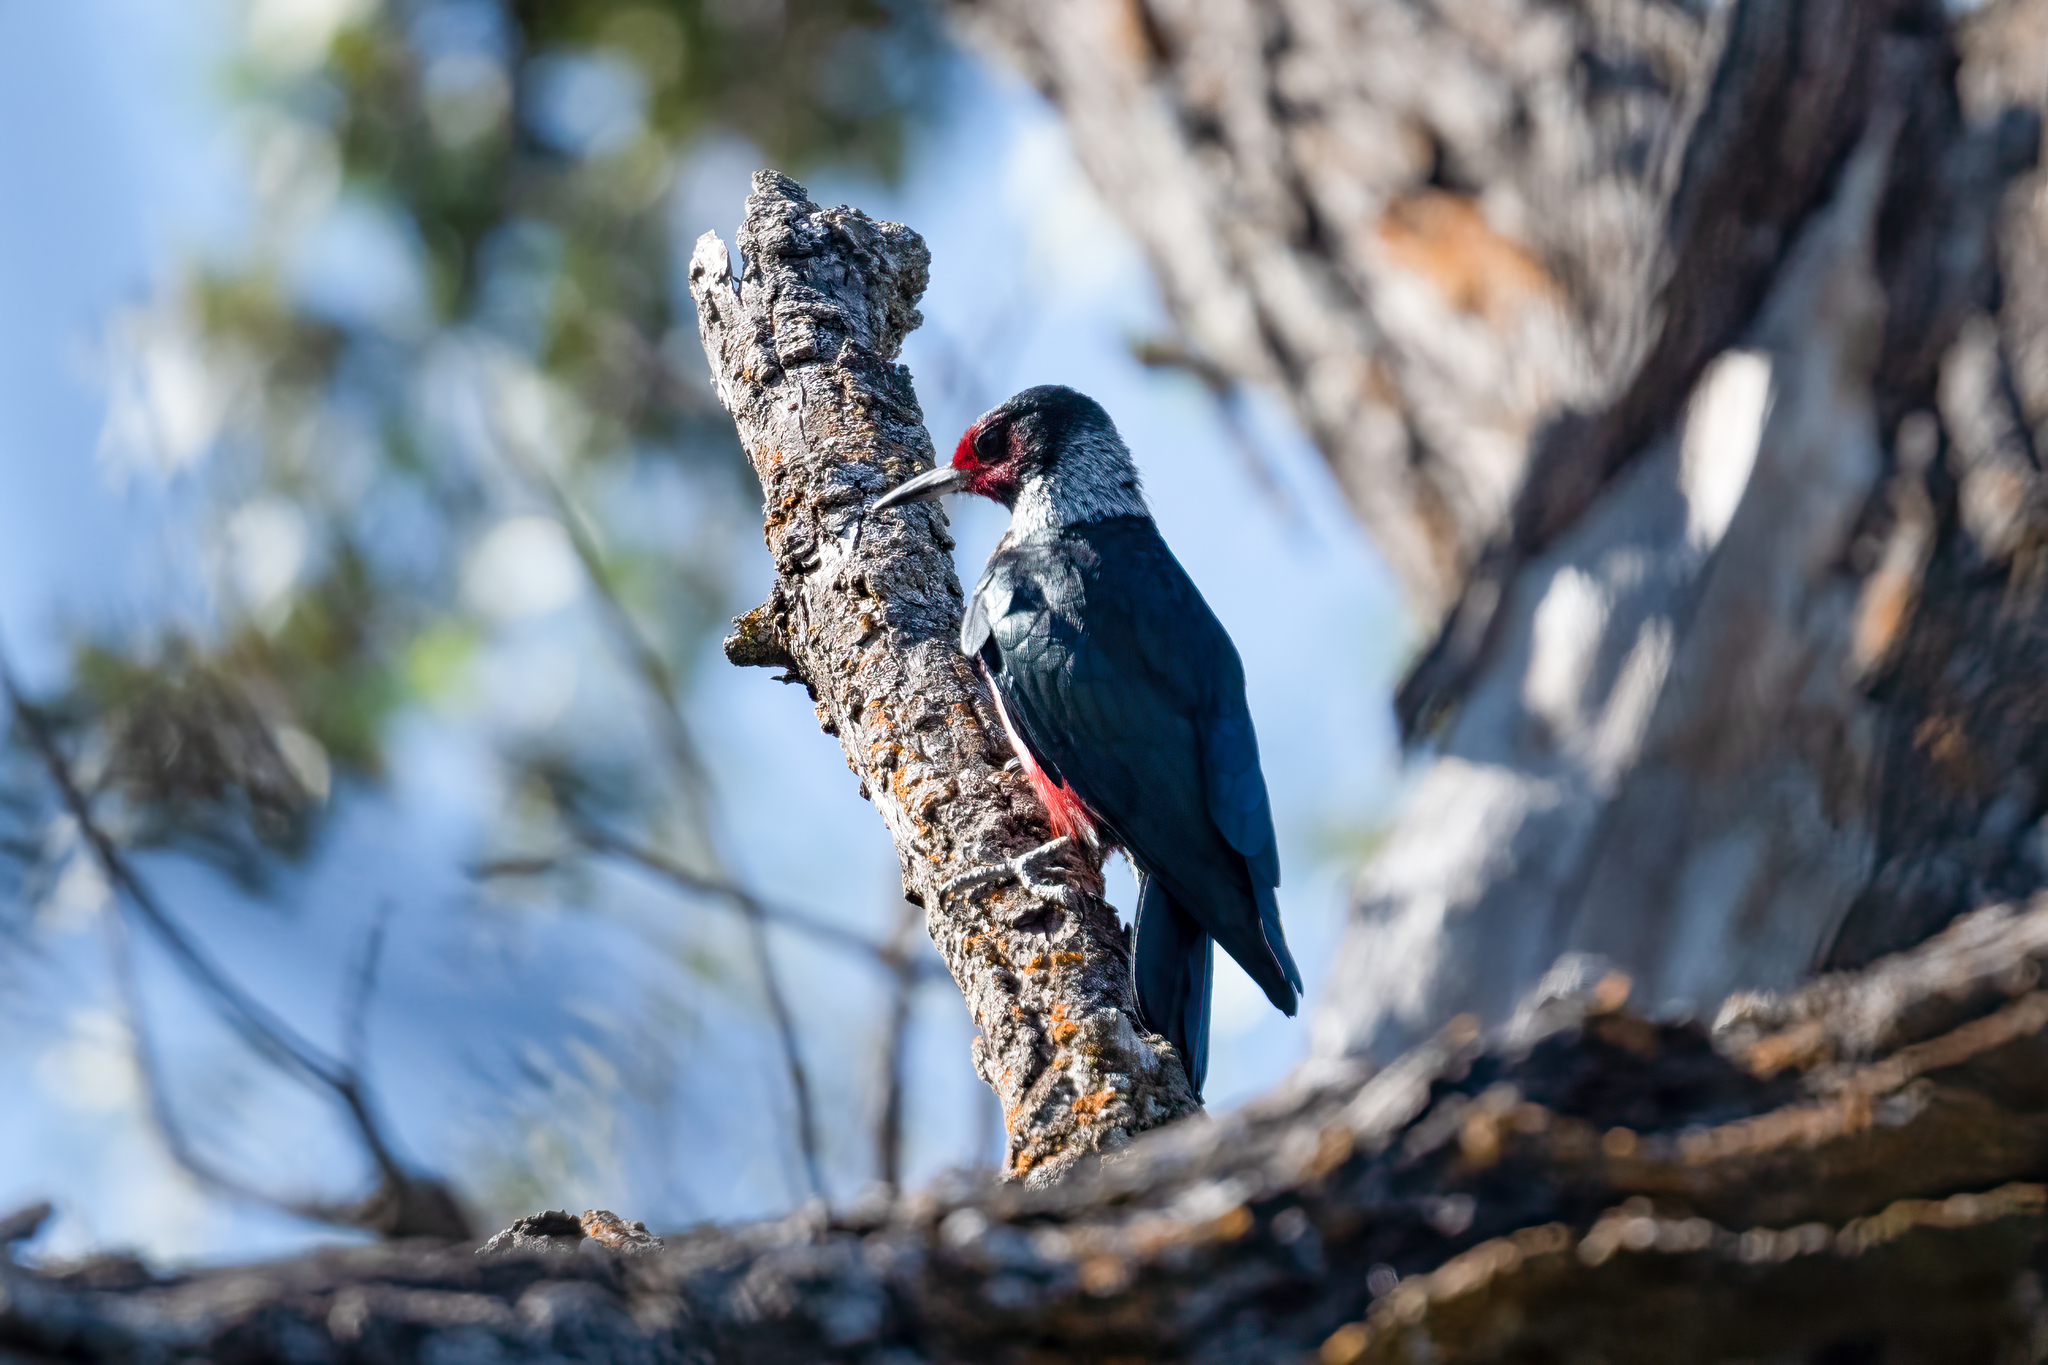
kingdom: Animalia
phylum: Chordata
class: Aves
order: Piciformes
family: Picidae
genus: Melanerpes
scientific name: Melanerpes lewis
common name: Lewis's woodpecker
